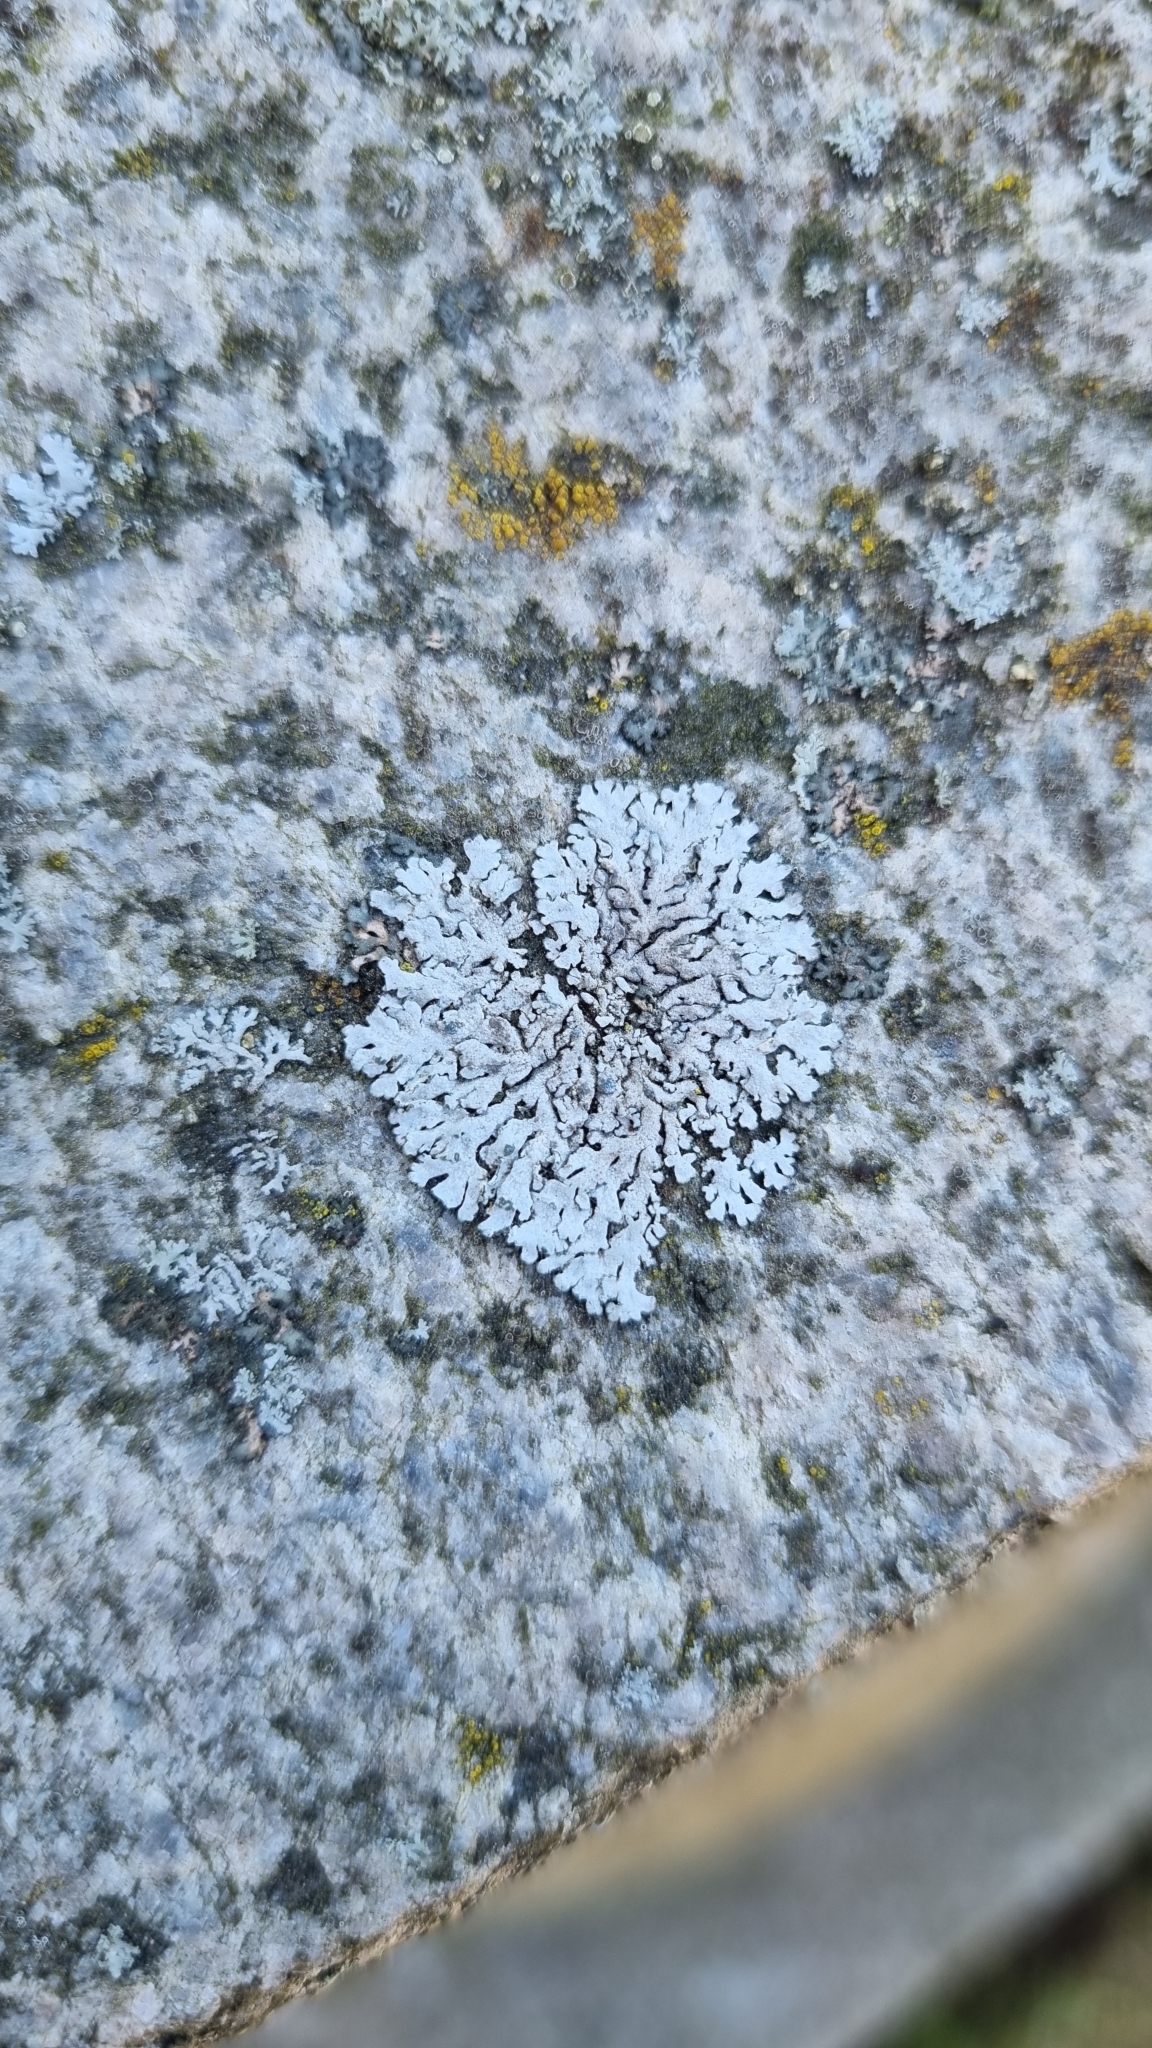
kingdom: Fungi
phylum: Ascomycota
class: Lecanoromycetes
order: Caliciales
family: Physciaceae
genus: Physcia
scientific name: Physcia caesia
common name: Blue-gray rosette lichen
